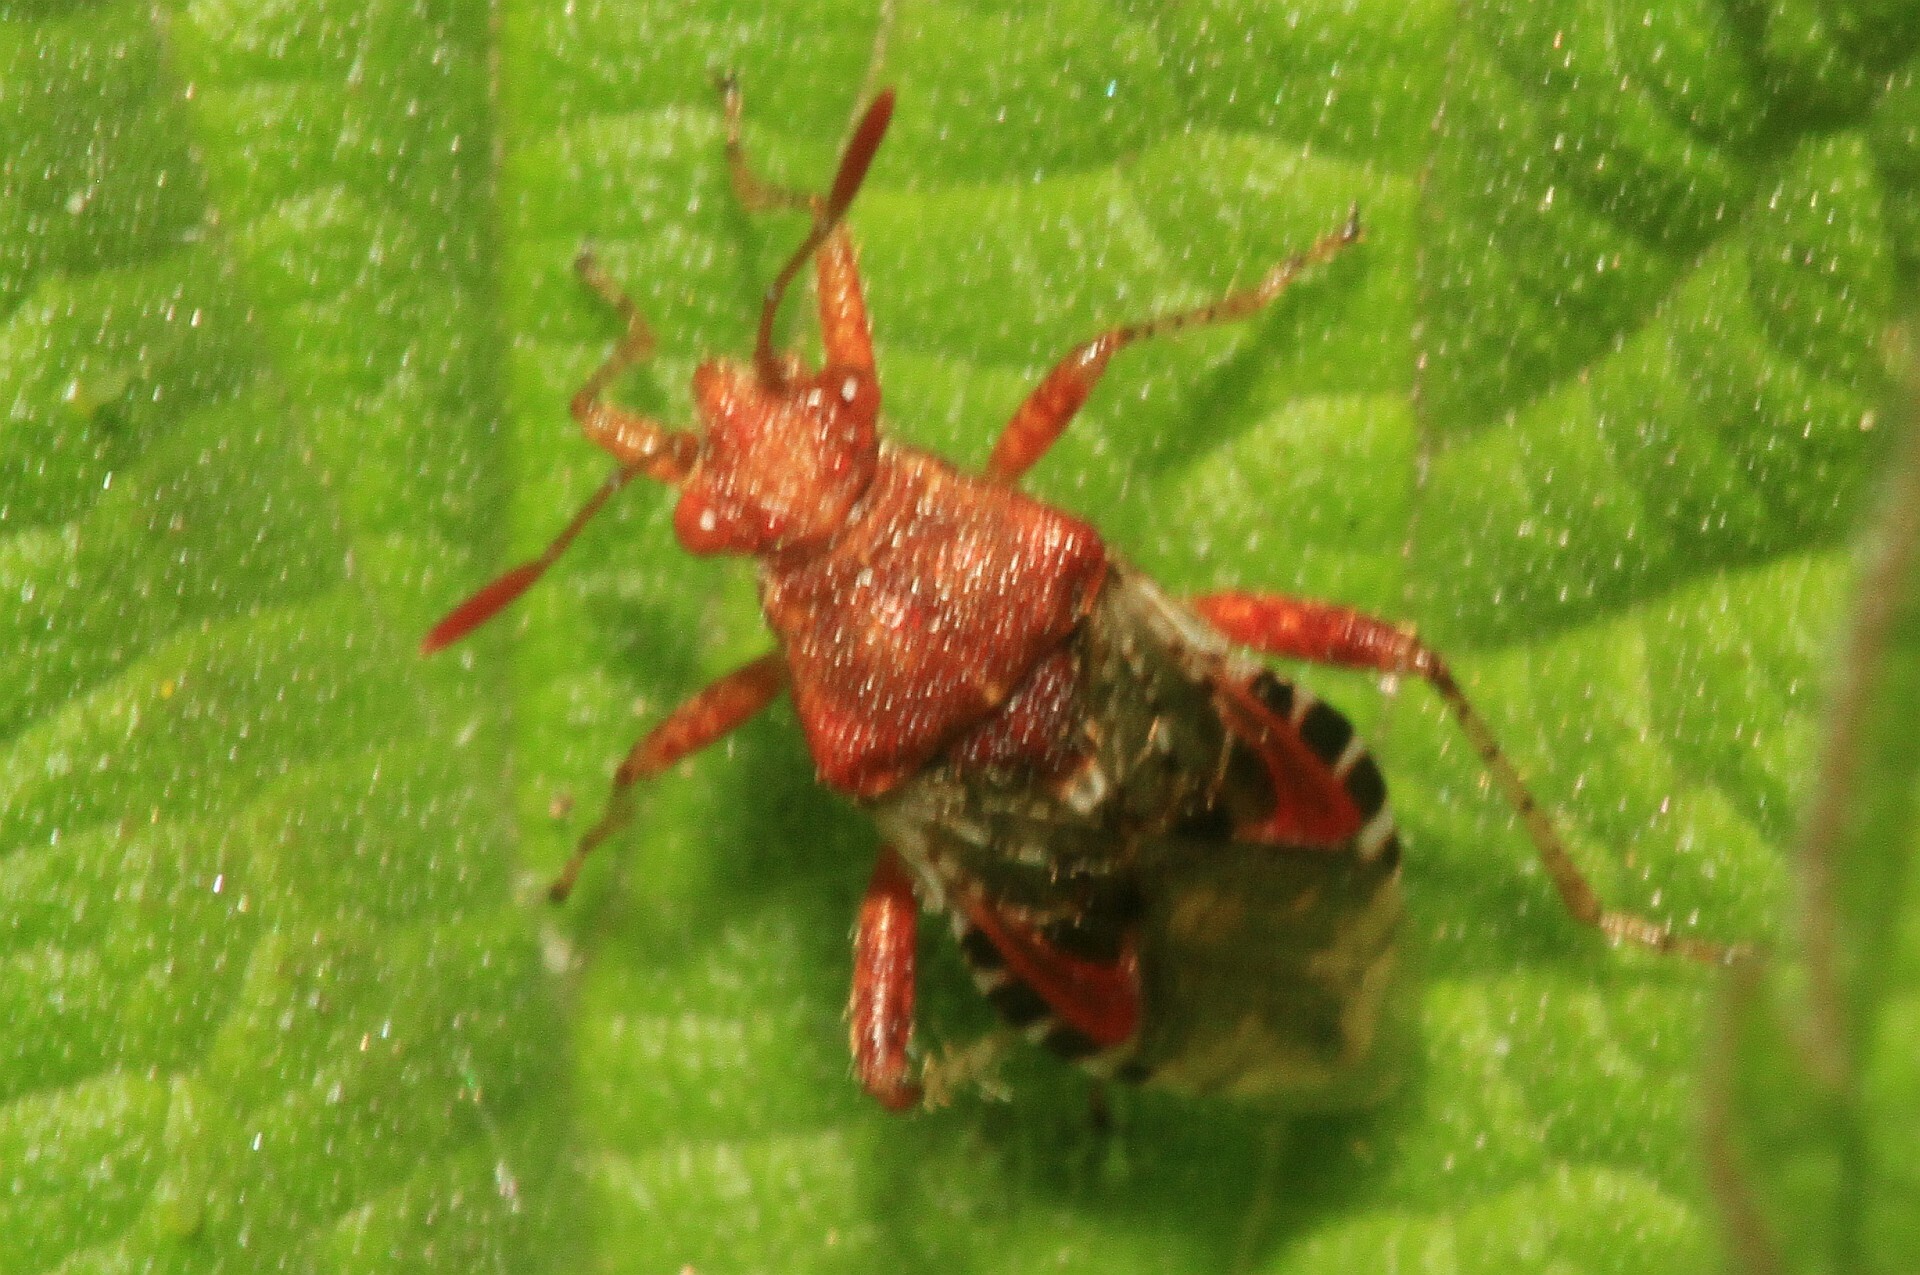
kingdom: Animalia
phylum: Arthropoda
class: Insecta
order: Hemiptera
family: Rhopalidae
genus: Rhopalus
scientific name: Rhopalus subrufus
